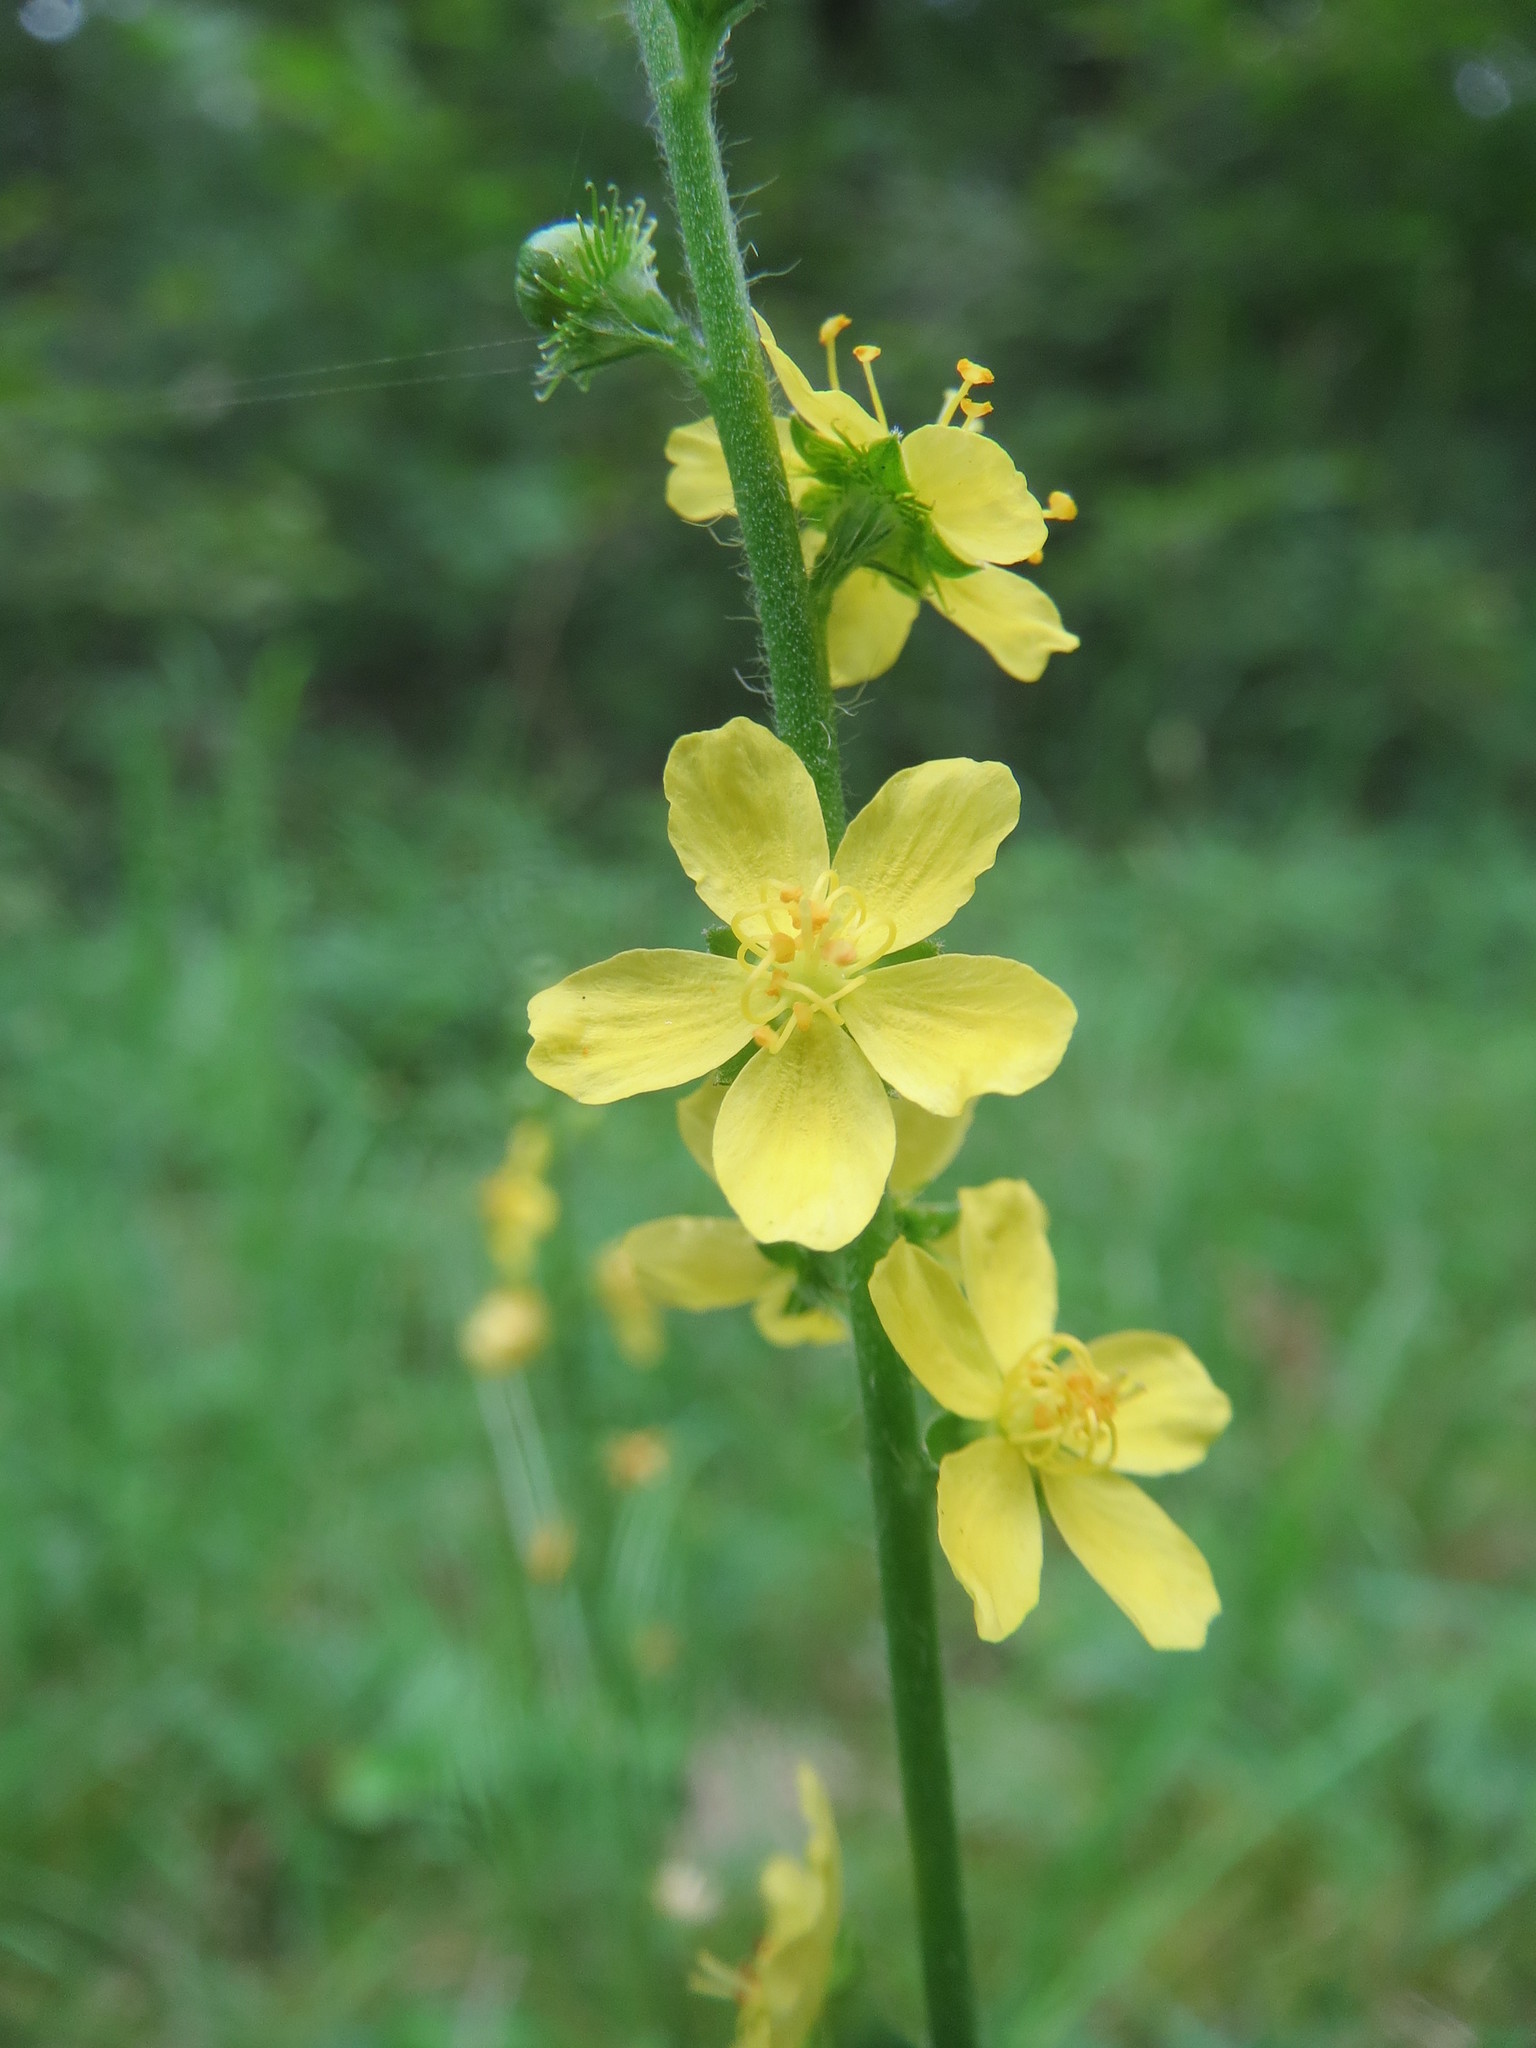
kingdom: Plantae
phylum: Tracheophyta
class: Magnoliopsida
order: Rosales
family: Rosaceae
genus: Agrimonia
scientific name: Agrimonia eupatoria
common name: Agrimony
